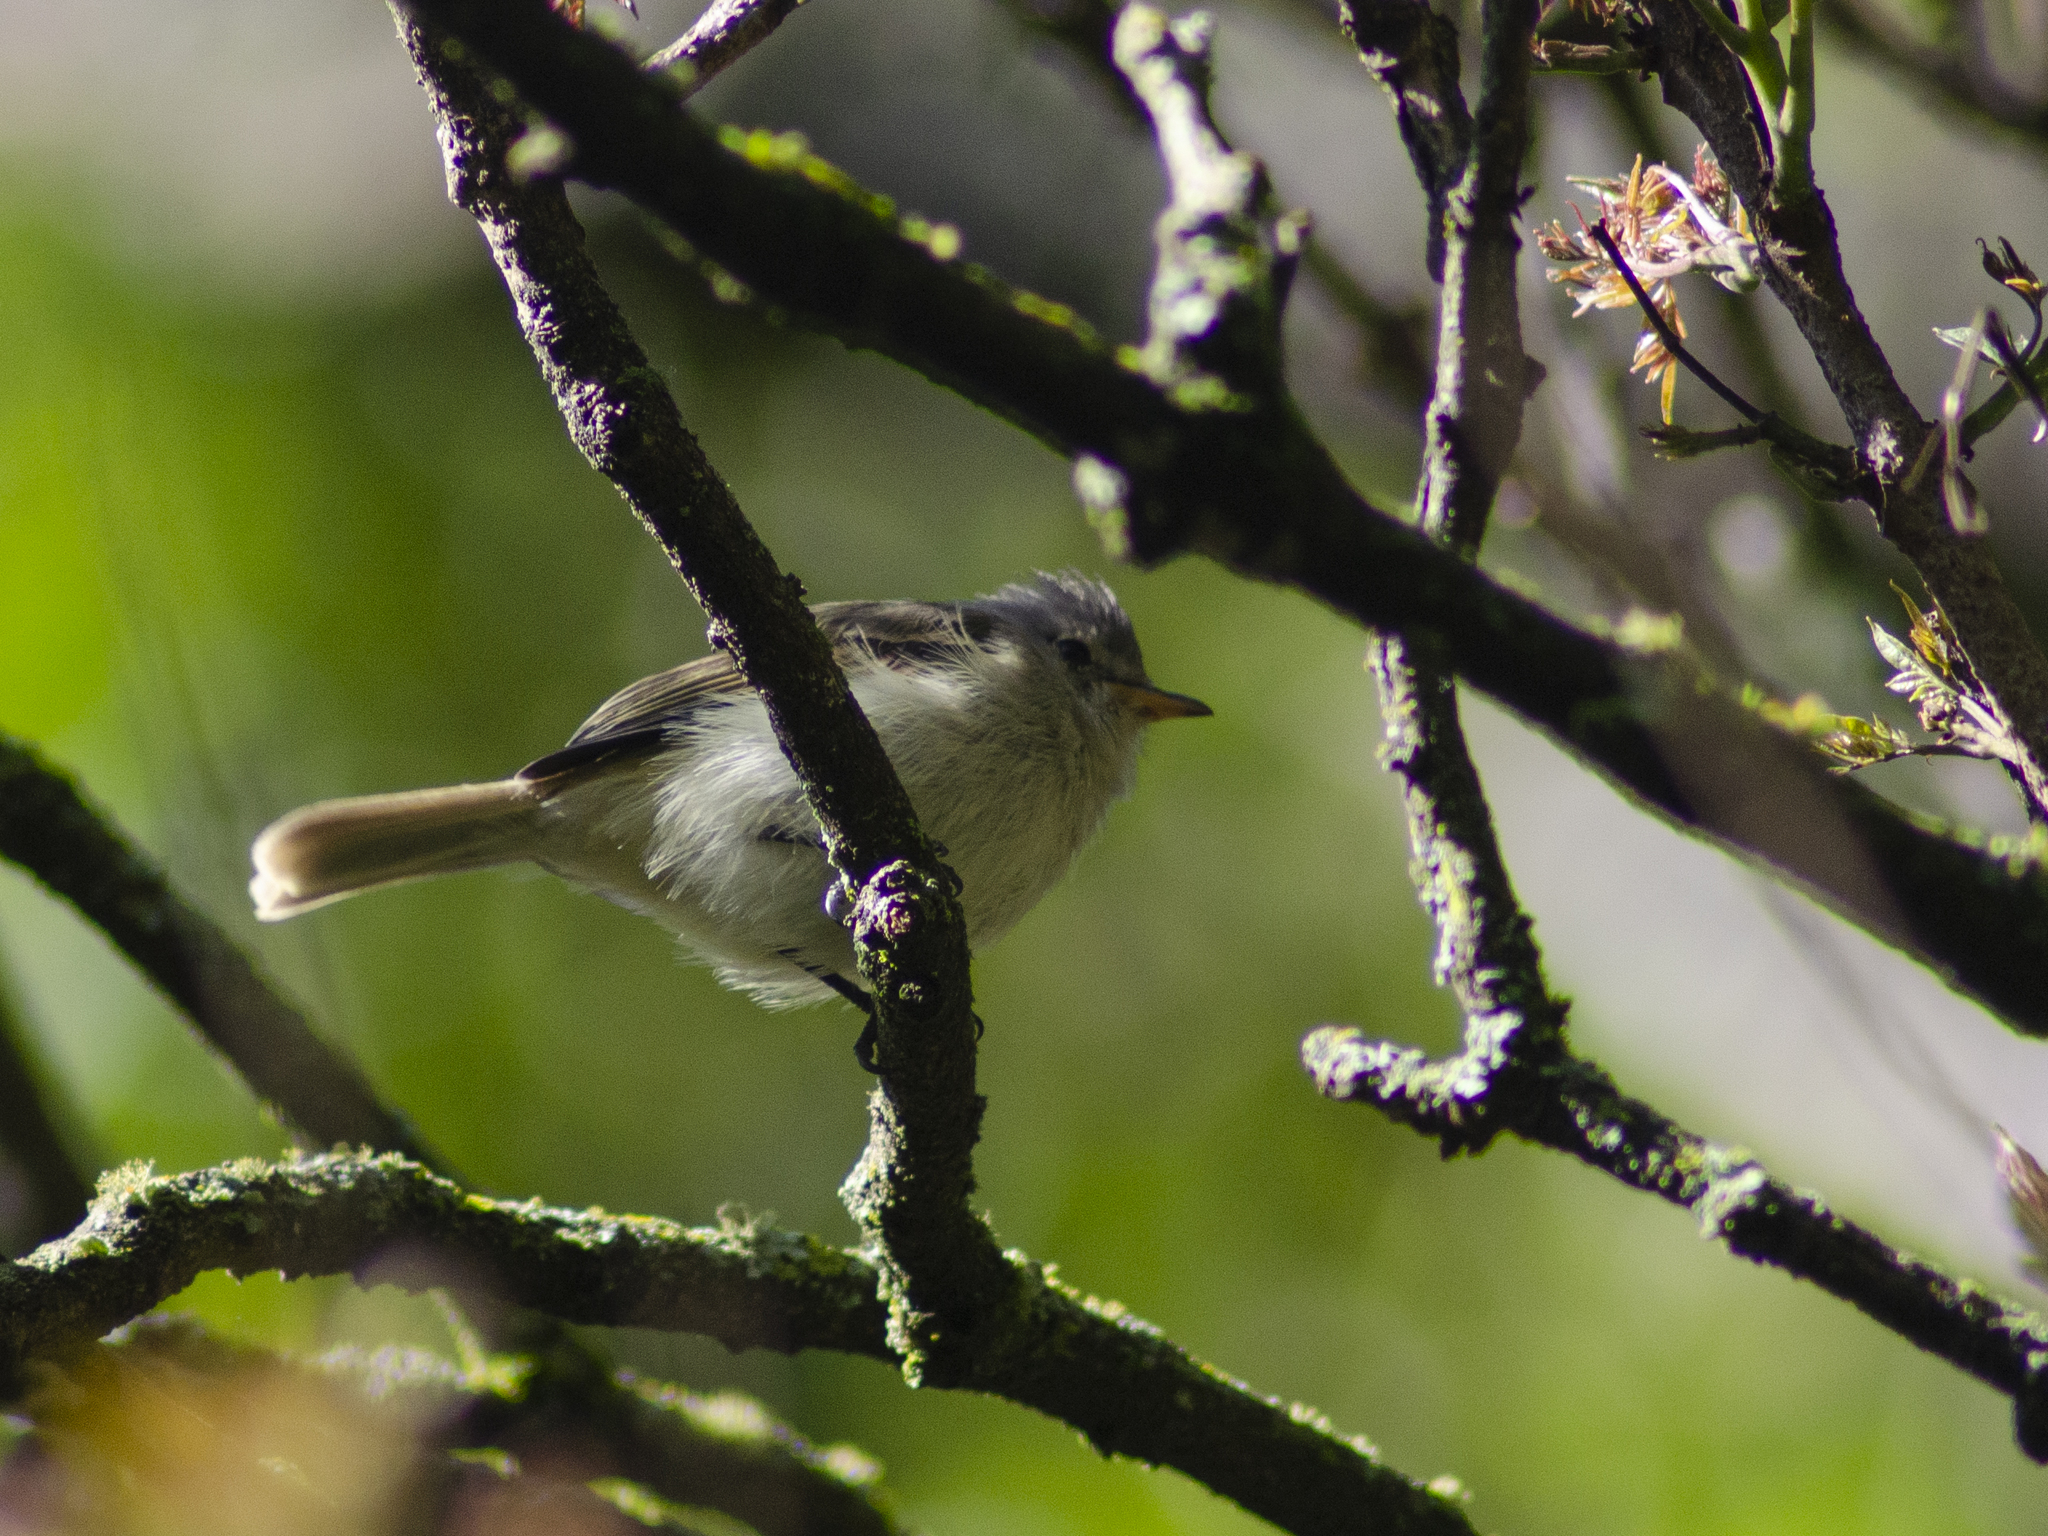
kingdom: Animalia
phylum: Chordata
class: Aves
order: Passeriformes
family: Tyrannidae
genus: Camptostoma
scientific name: Camptostoma obsoletum
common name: Southern beardless-tyrannulet
